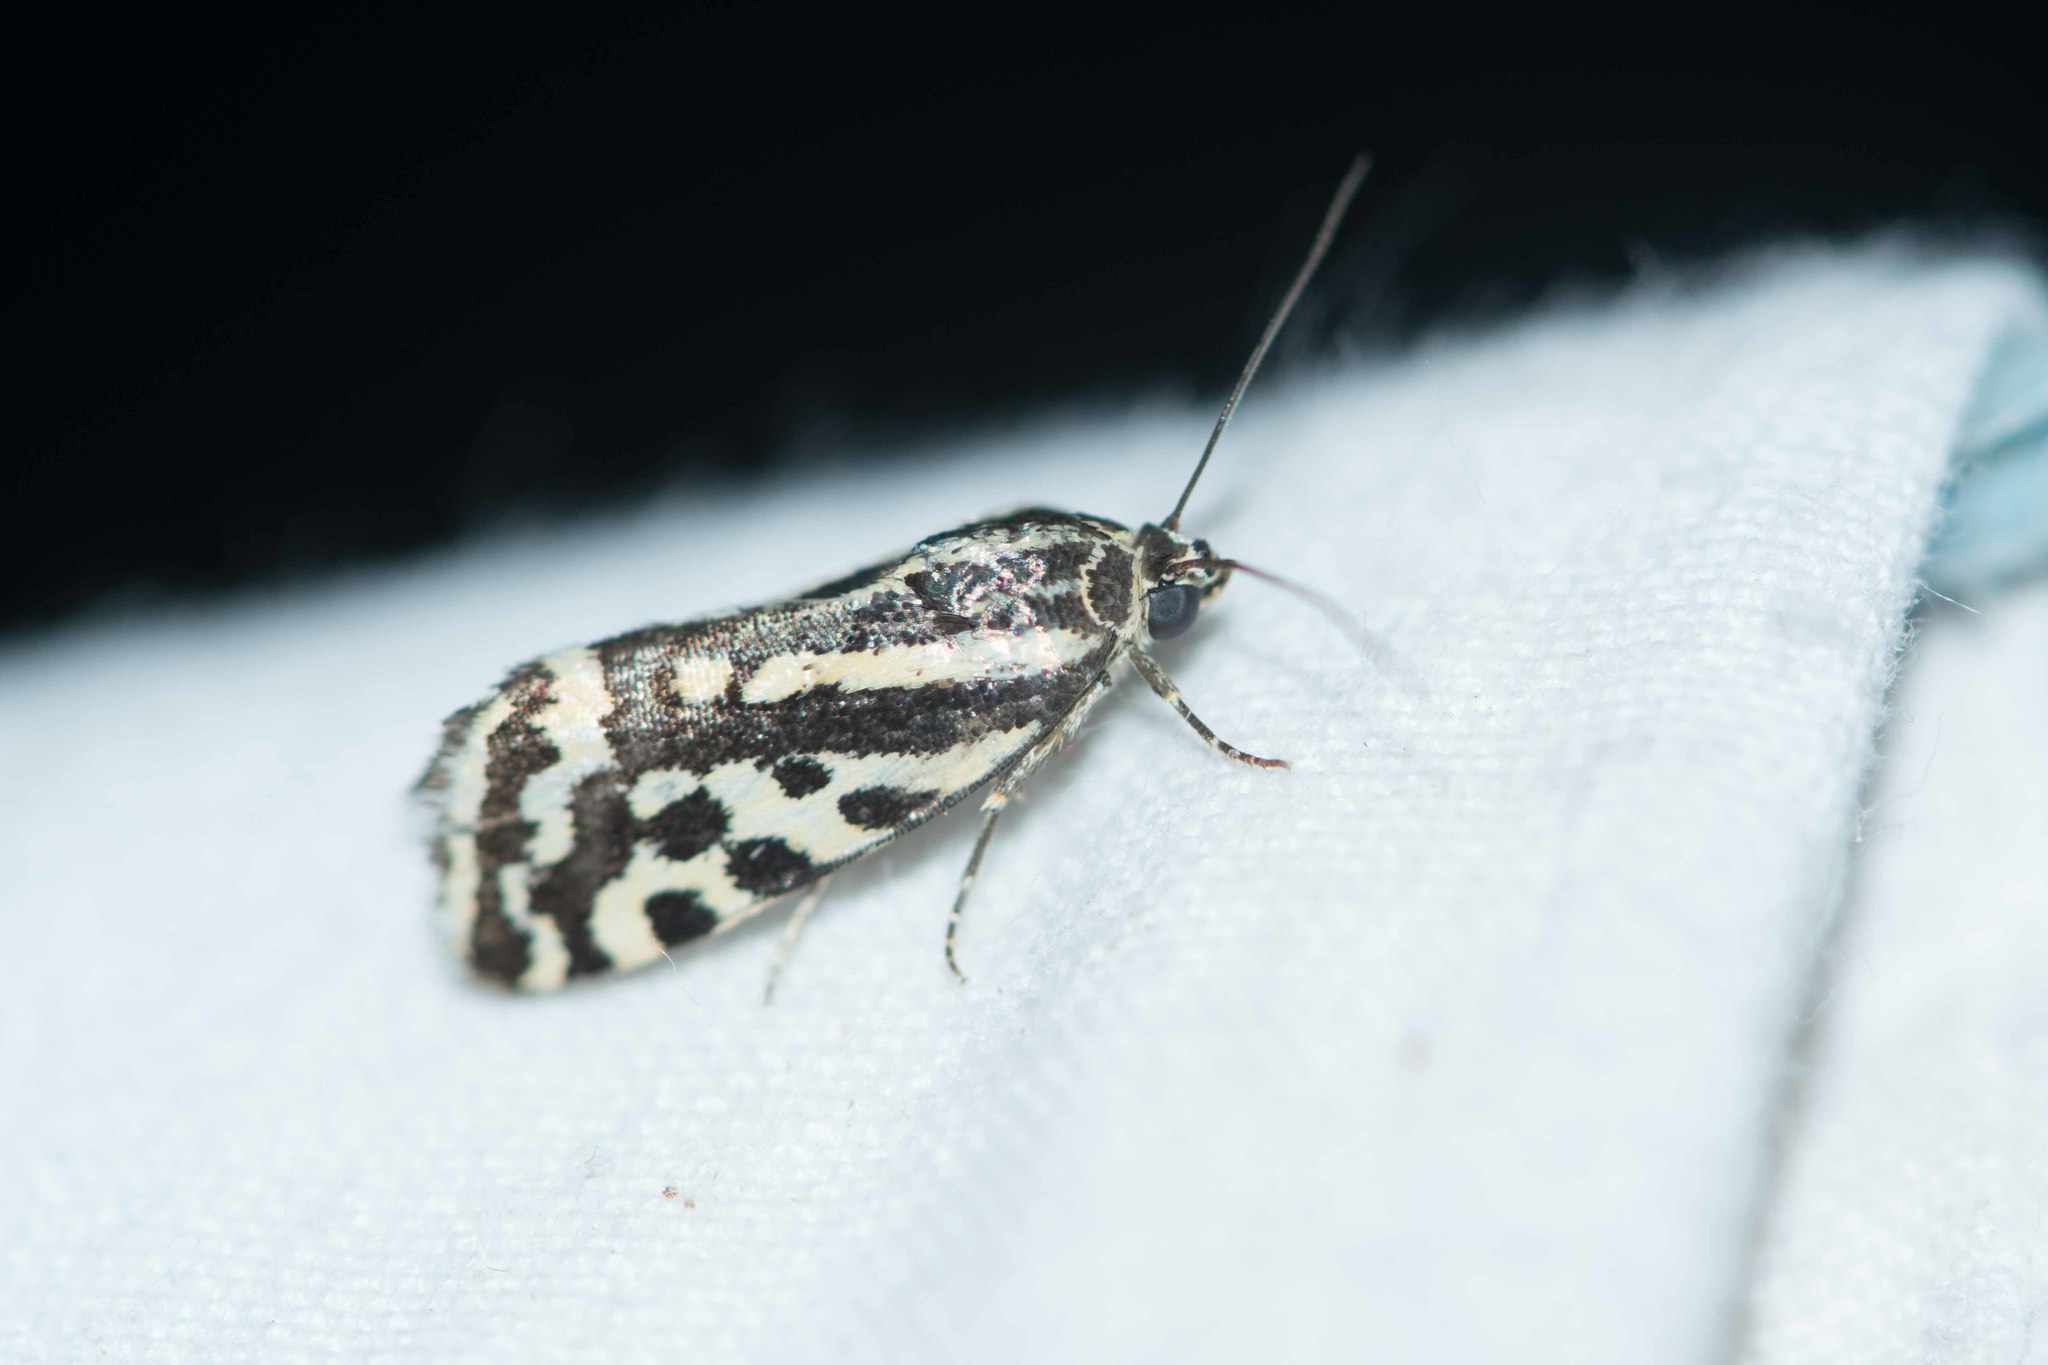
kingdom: Animalia
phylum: Arthropoda
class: Insecta
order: Lepidoptera
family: Noctuidae
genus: Acontia
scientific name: Acontia trabealis
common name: Spotted sulphur
